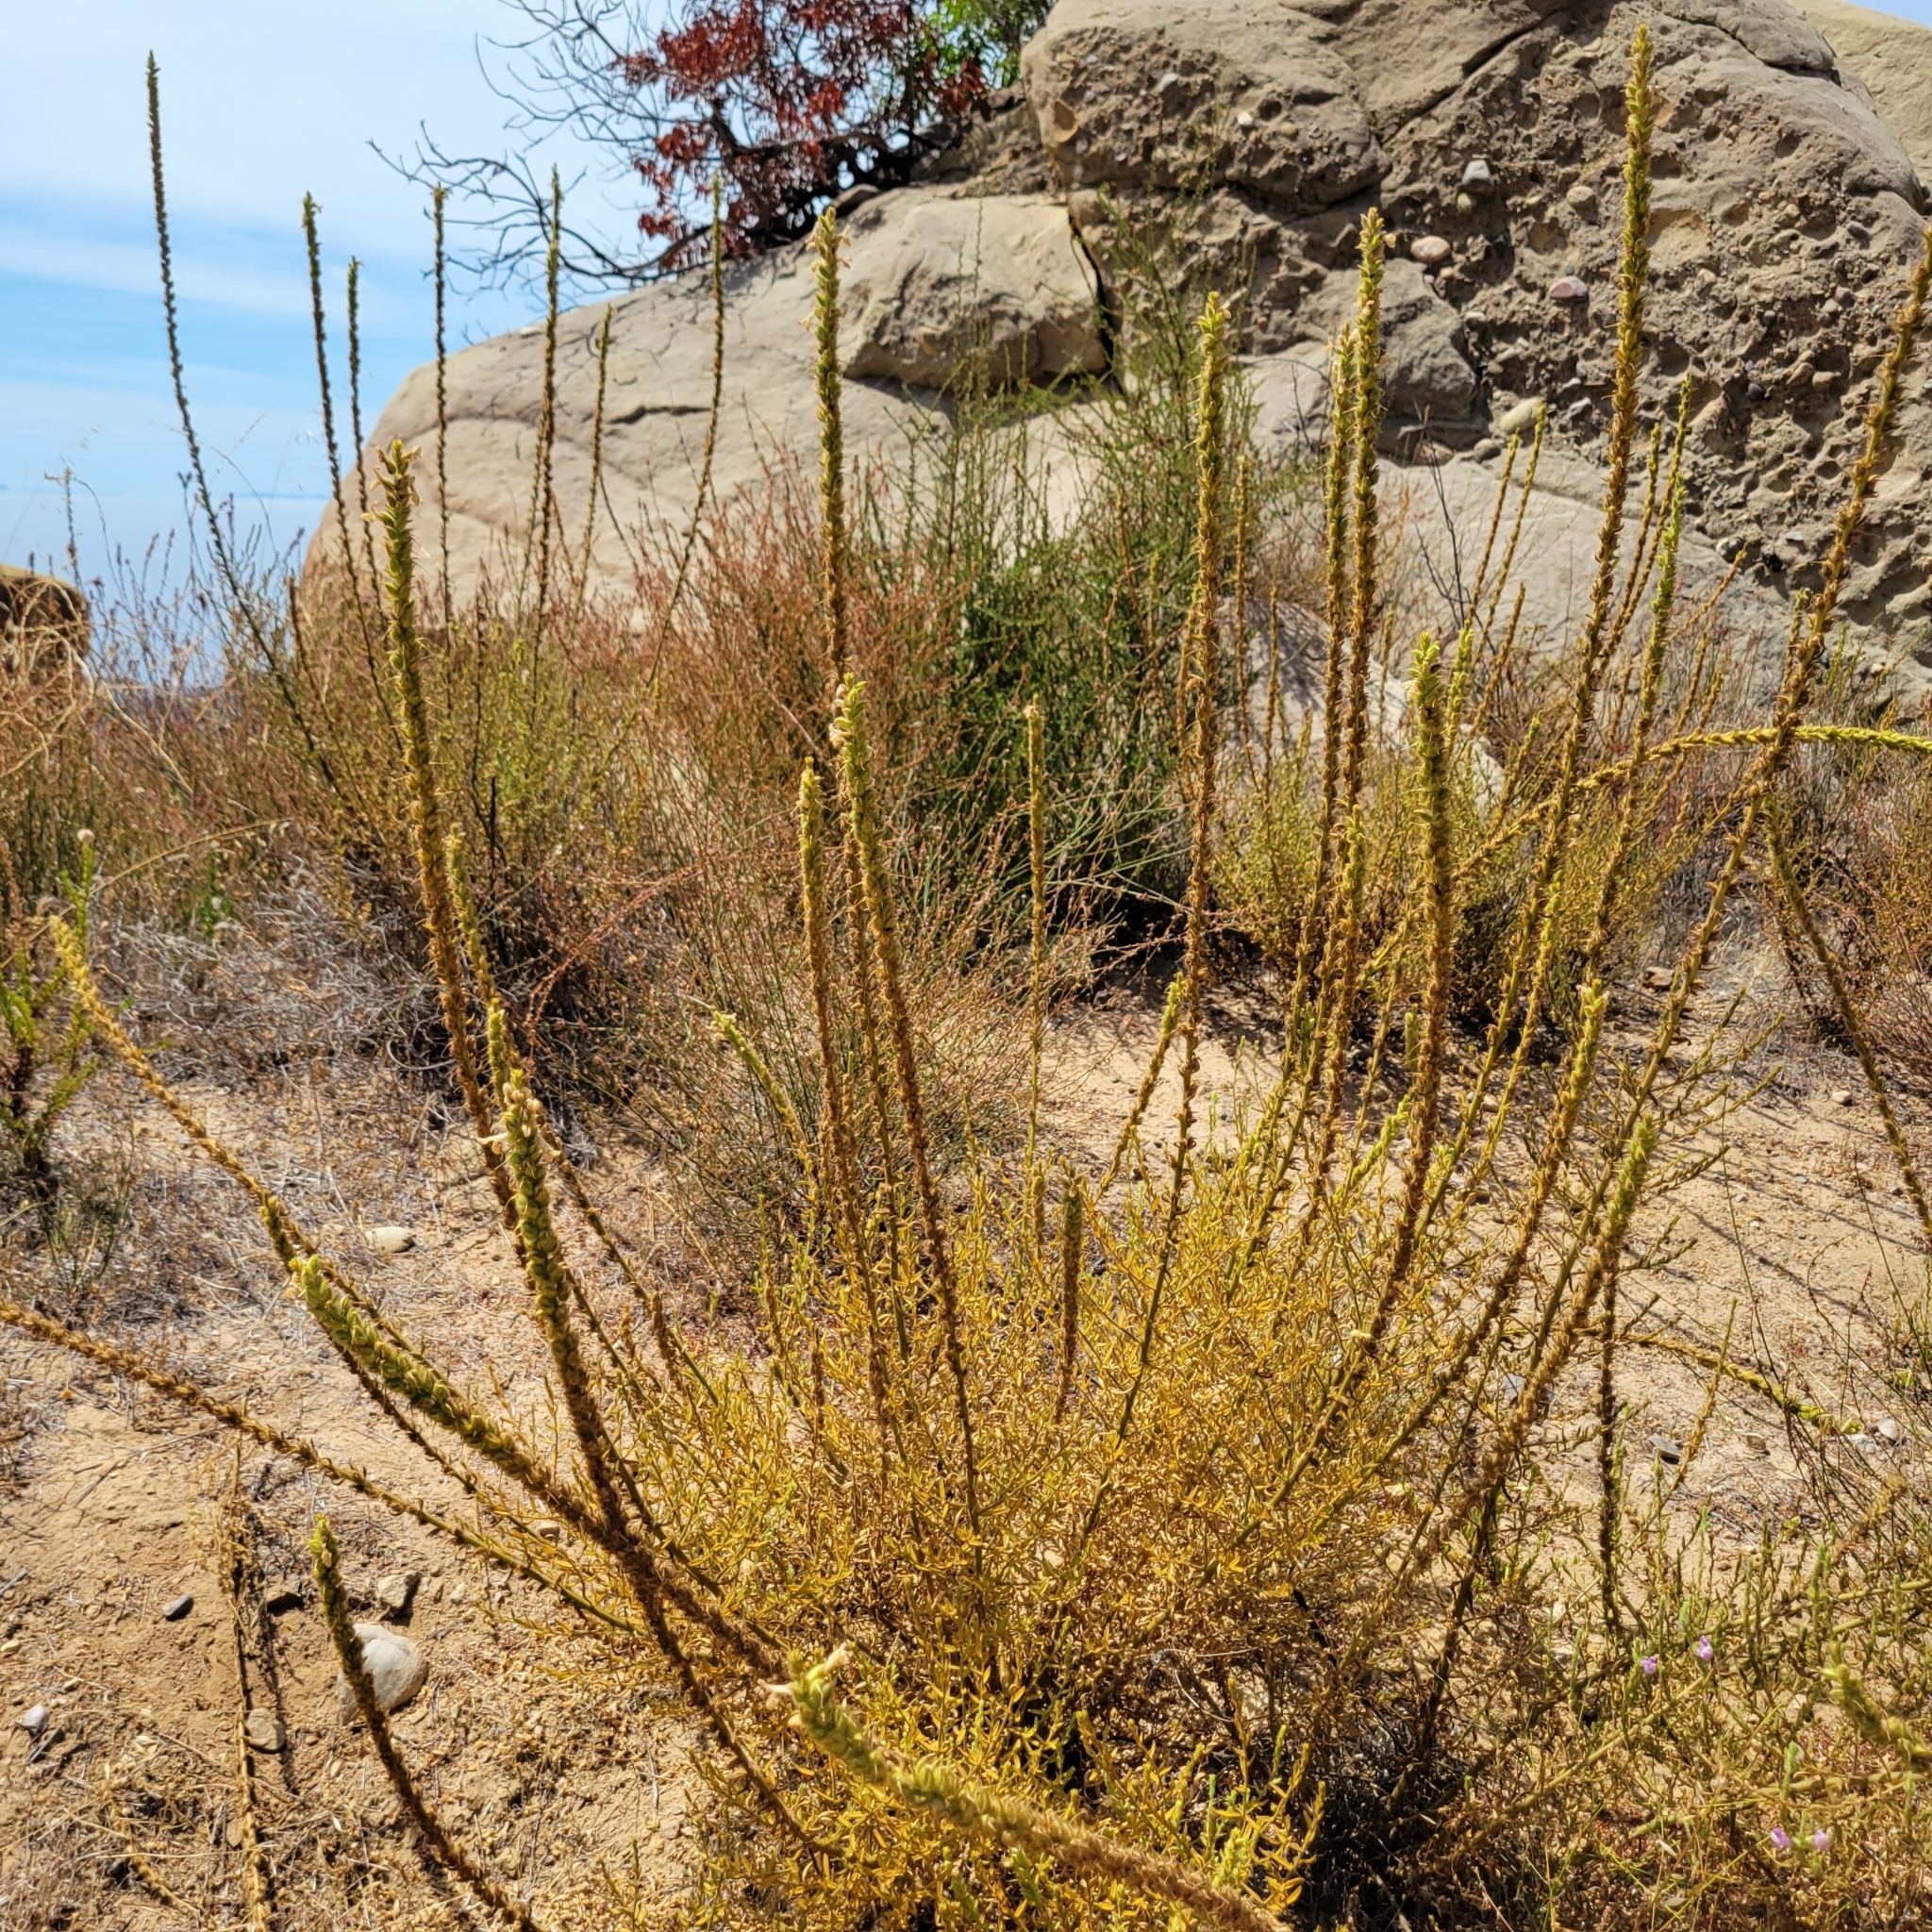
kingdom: Plantae
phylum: Tracheophyta
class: Magnoliopsida
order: Lamiales
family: Plantaginaceae
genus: Sairocarpus
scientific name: Sairocarpus multiflorus
